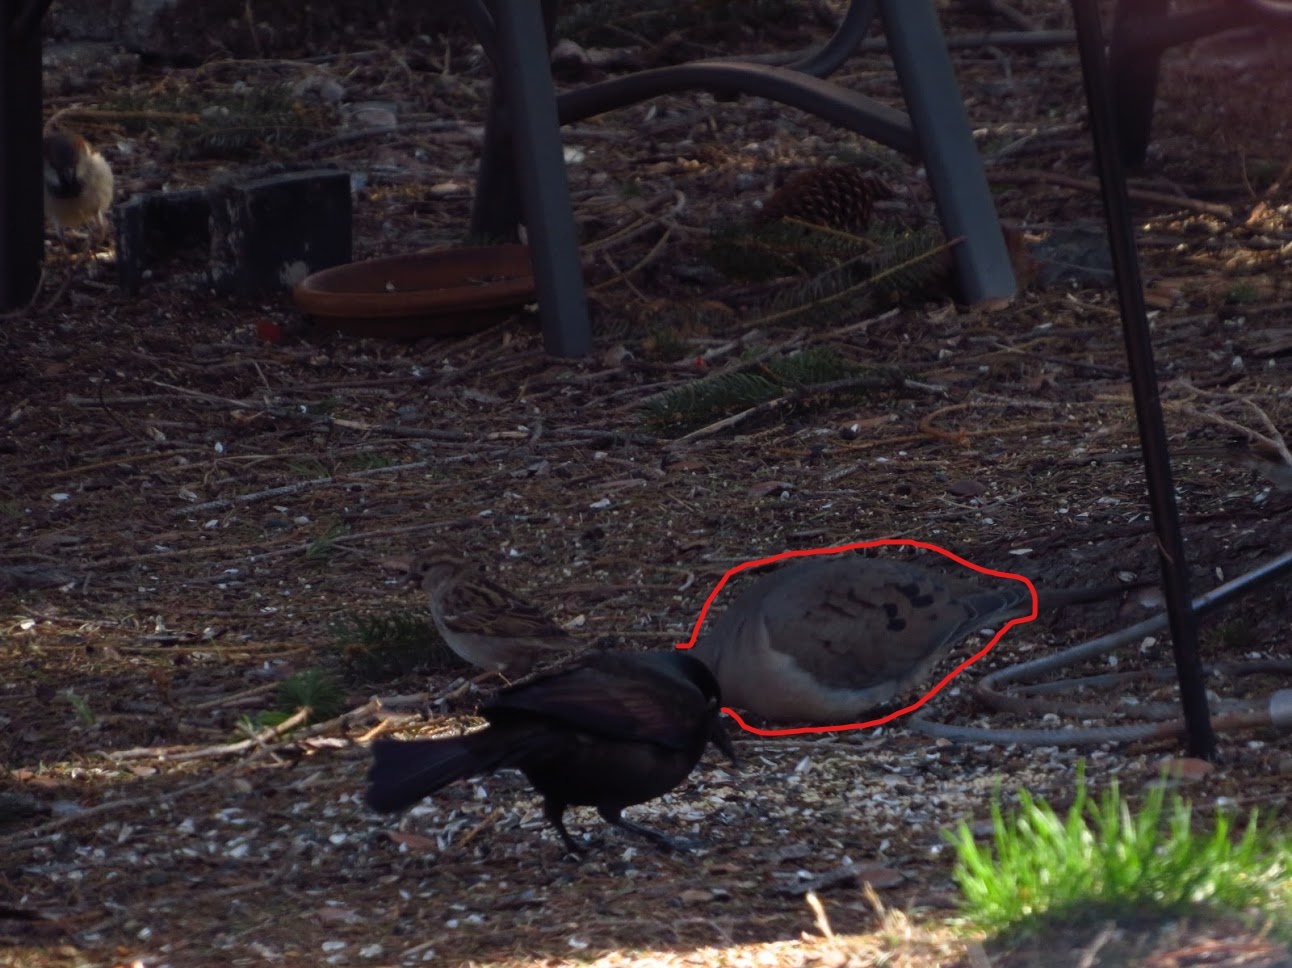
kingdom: Animalia
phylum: Chordata
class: Aves
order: Columbiformes
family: Columbidae
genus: Zenaida
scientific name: Zenaida macroura
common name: Mourning dove
